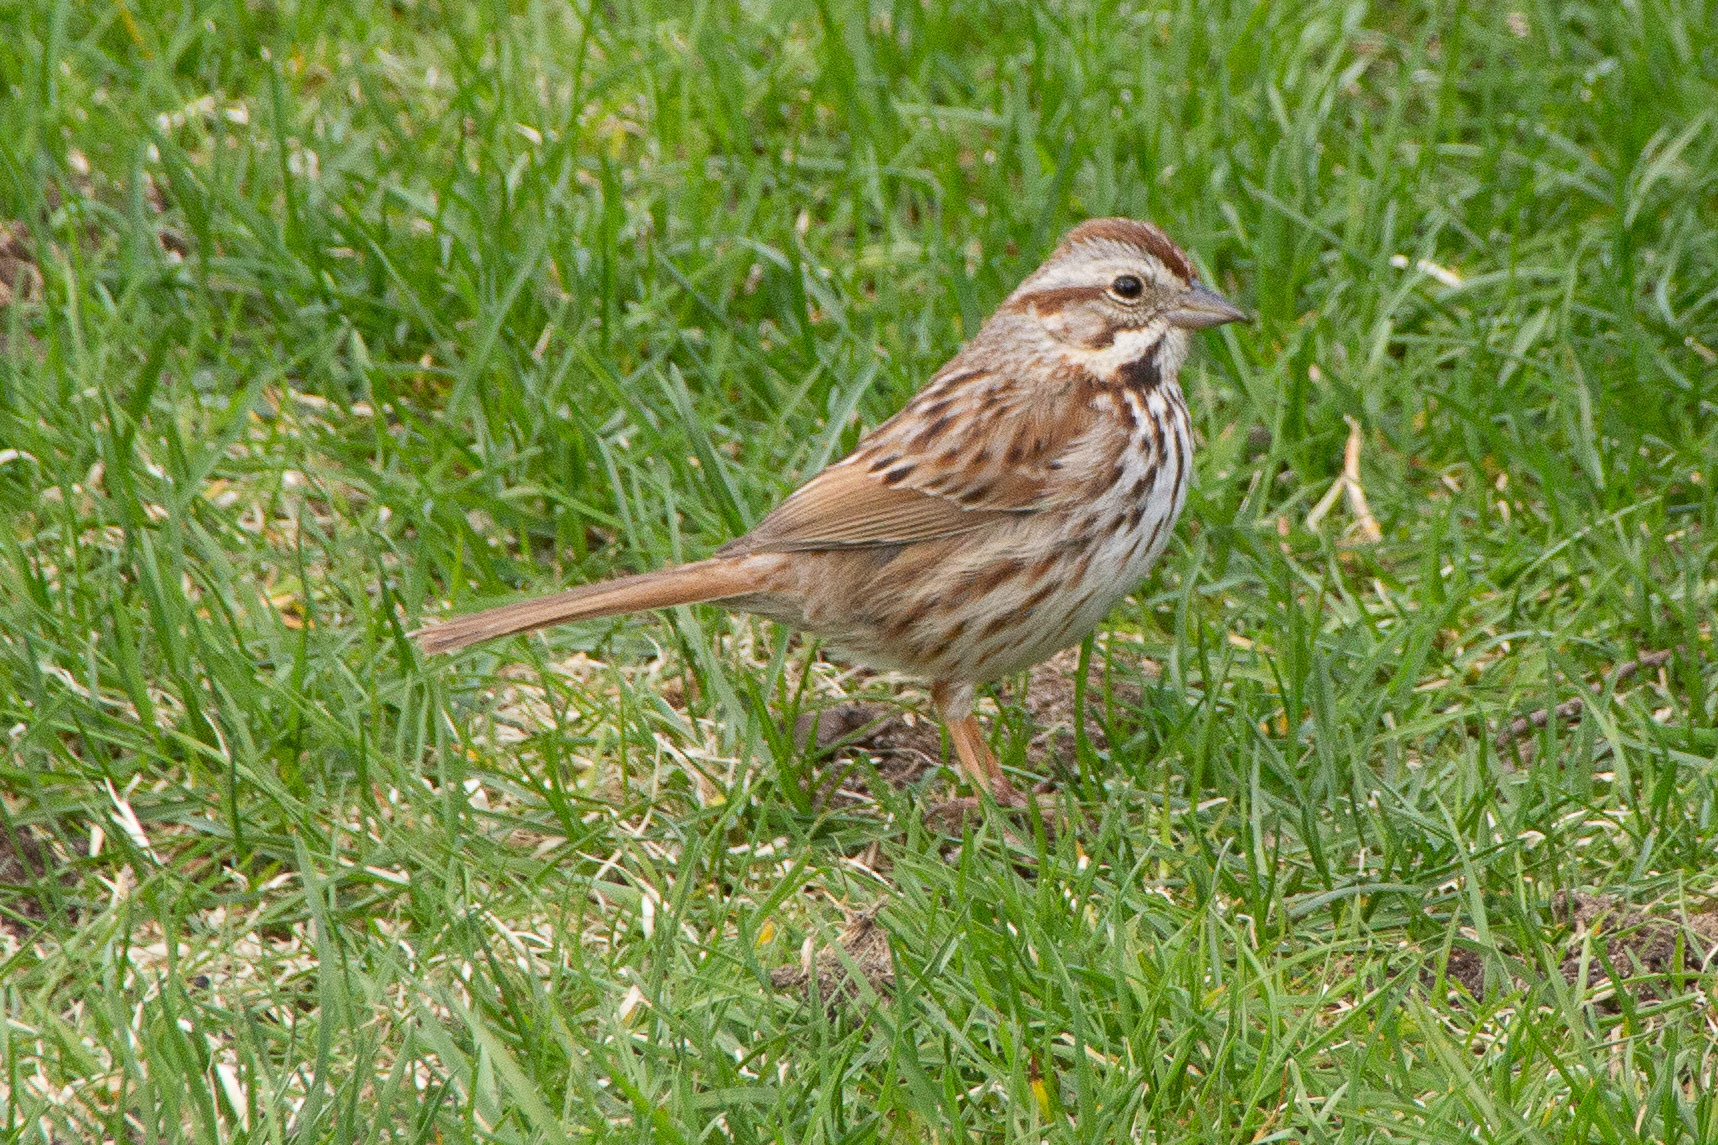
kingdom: Animalia
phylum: Chordata
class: Aves
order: Passeriformes
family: Passerellidae
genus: Melospiza
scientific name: Melospiza melodia
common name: Song sparrow
